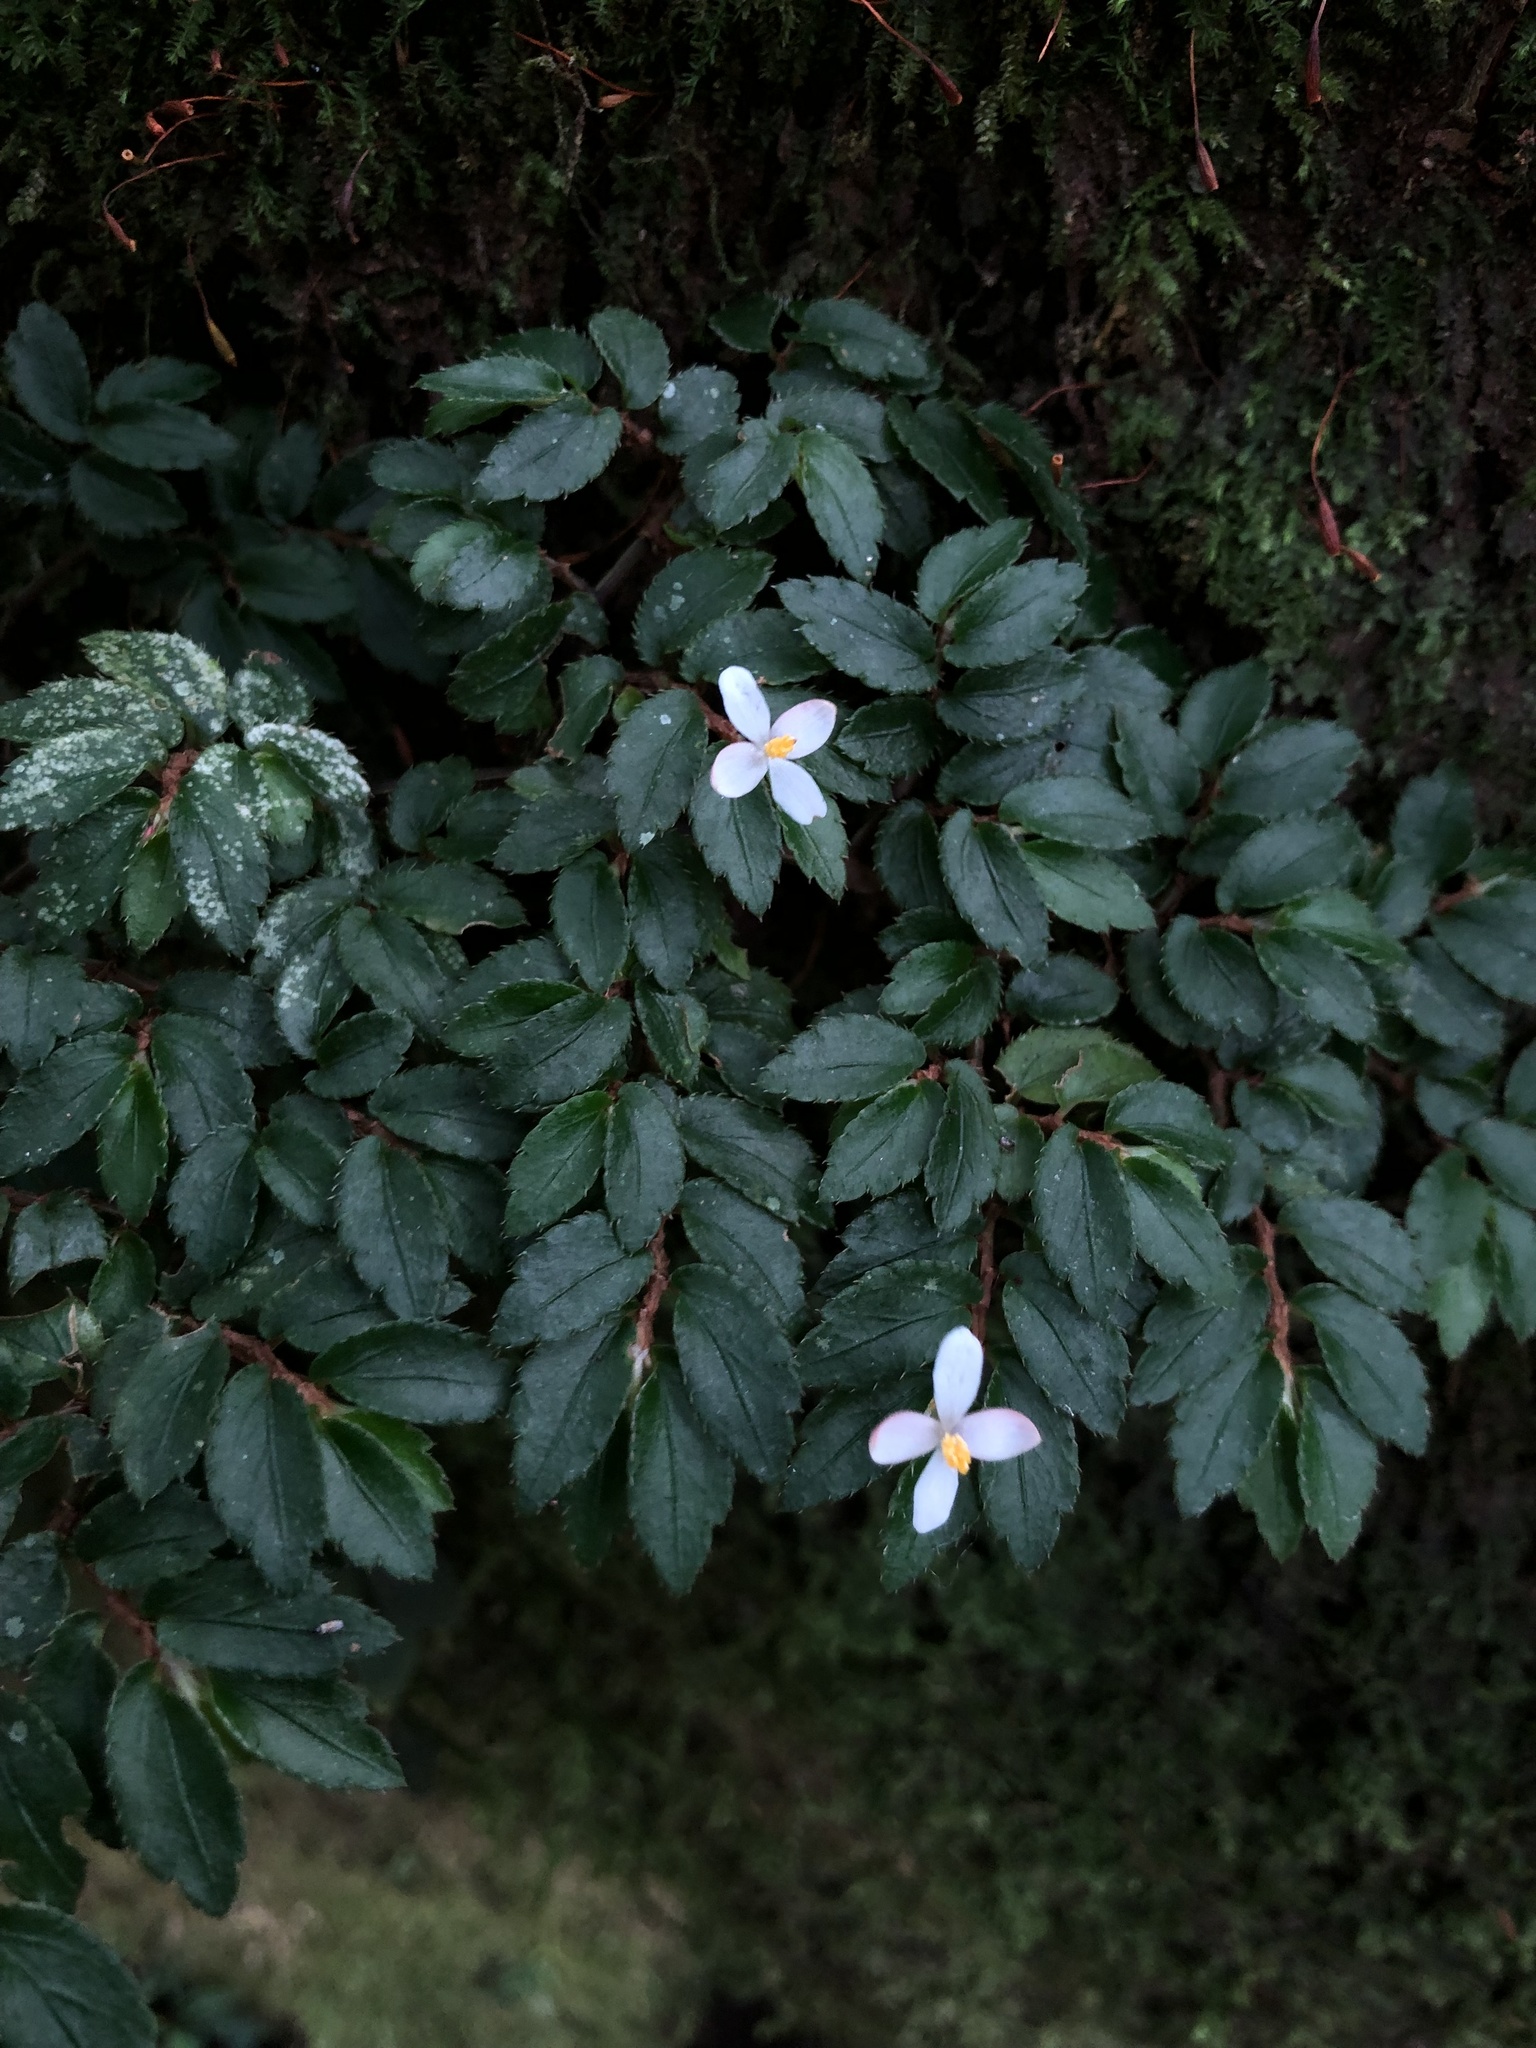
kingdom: Plantae
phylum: Tracheophyta
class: Magnoliopsida
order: Cucurbitales
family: Begoniaceae
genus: Begonia
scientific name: Begonia foliosa
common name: Fern begonia
